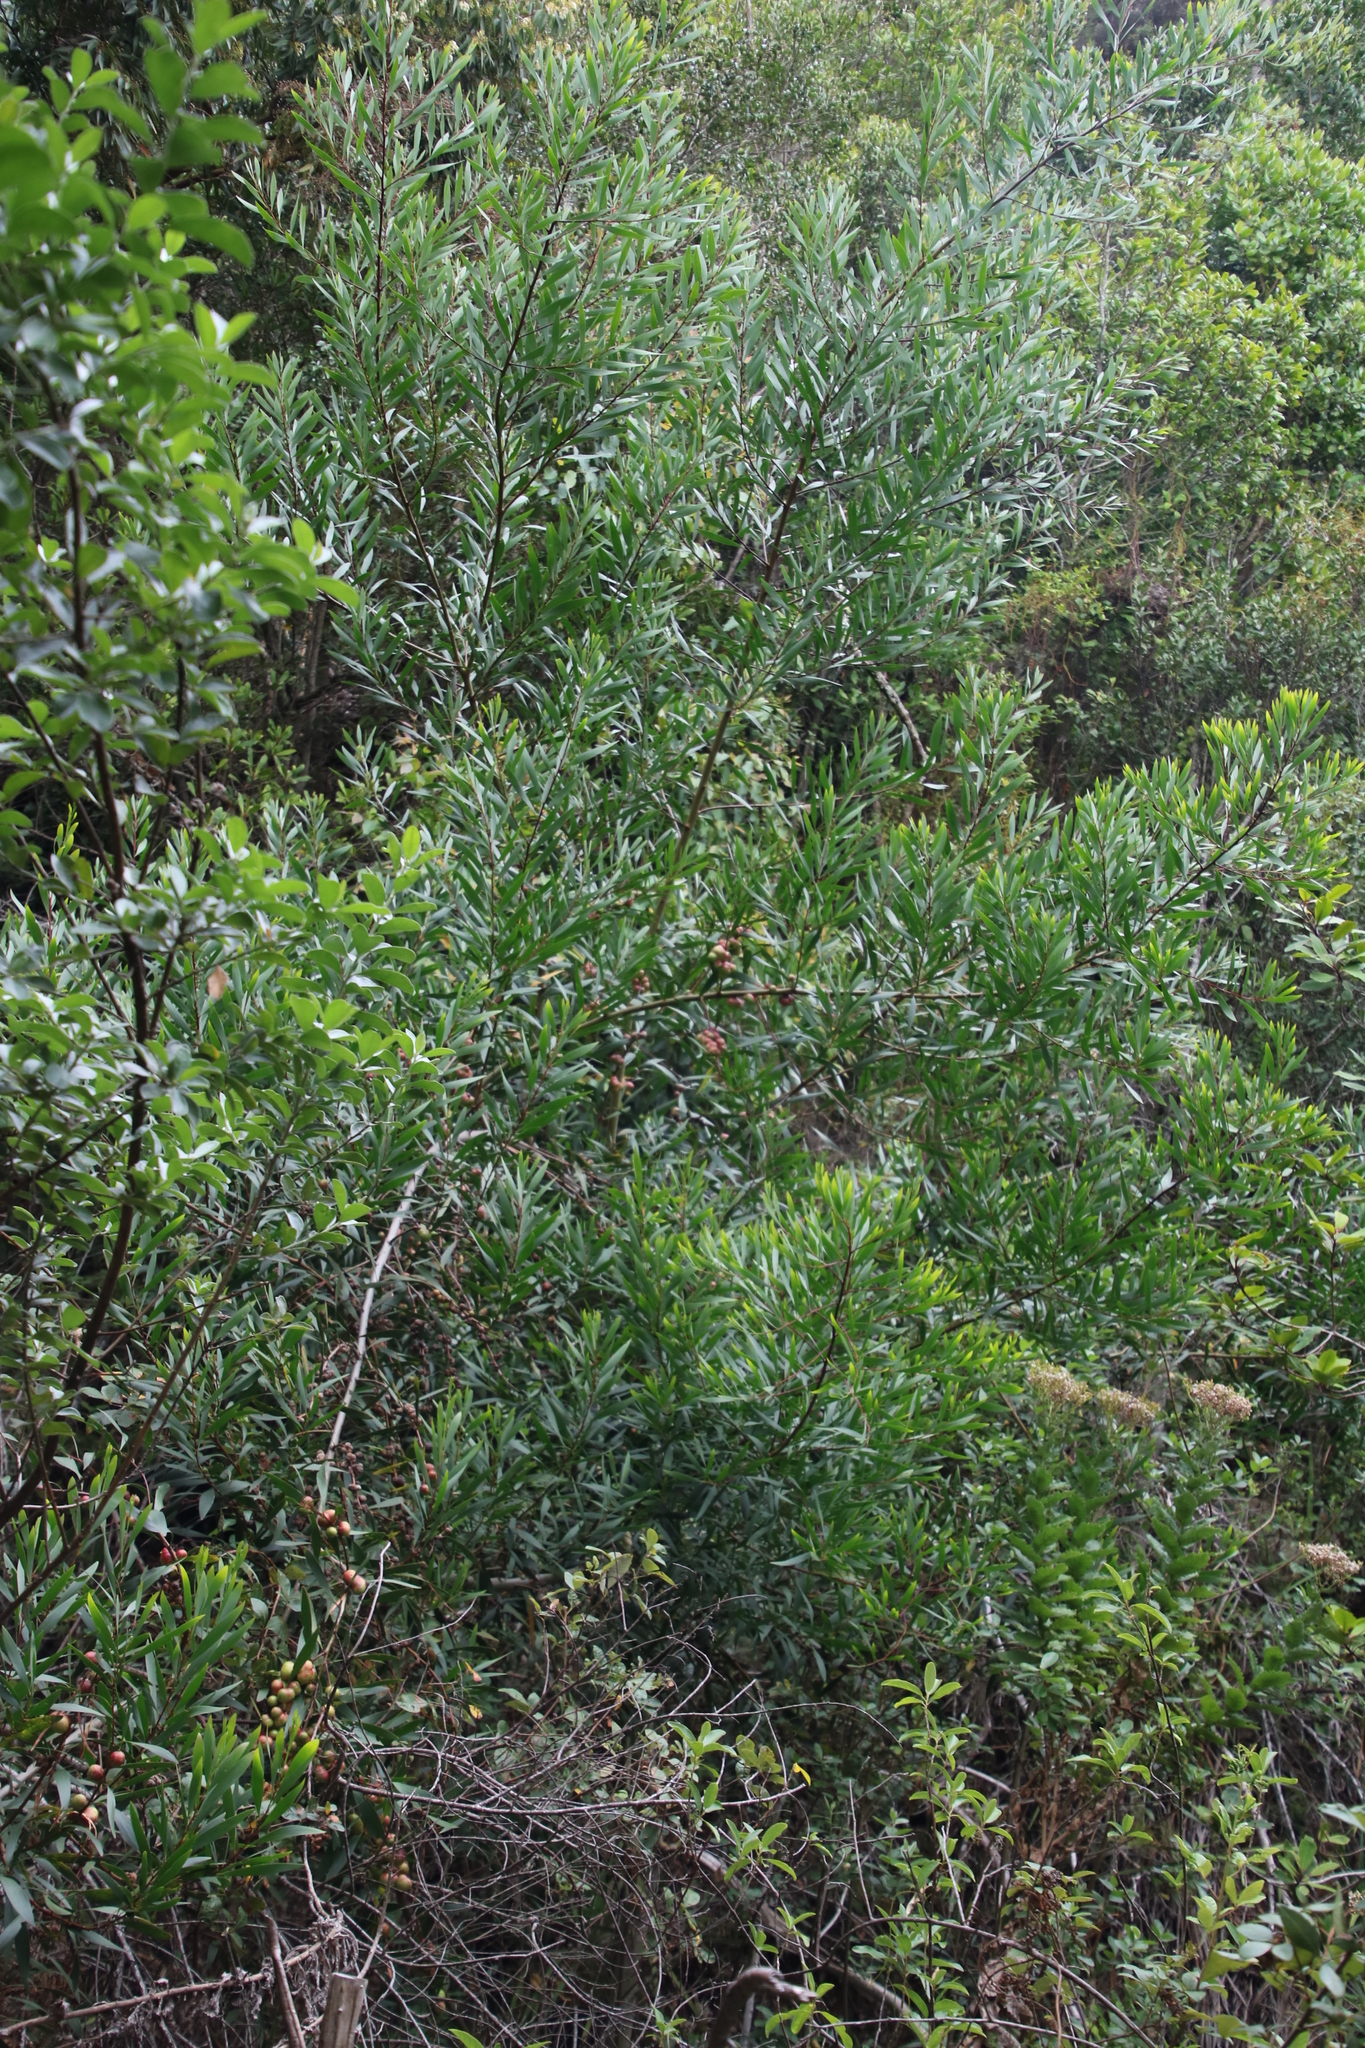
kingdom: Plantae
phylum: Tracheophyta
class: Magnoliopsida
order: Fabales
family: Fabaceae
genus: Acacia
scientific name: Acacia longifolia
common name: Sydney golden wattle
